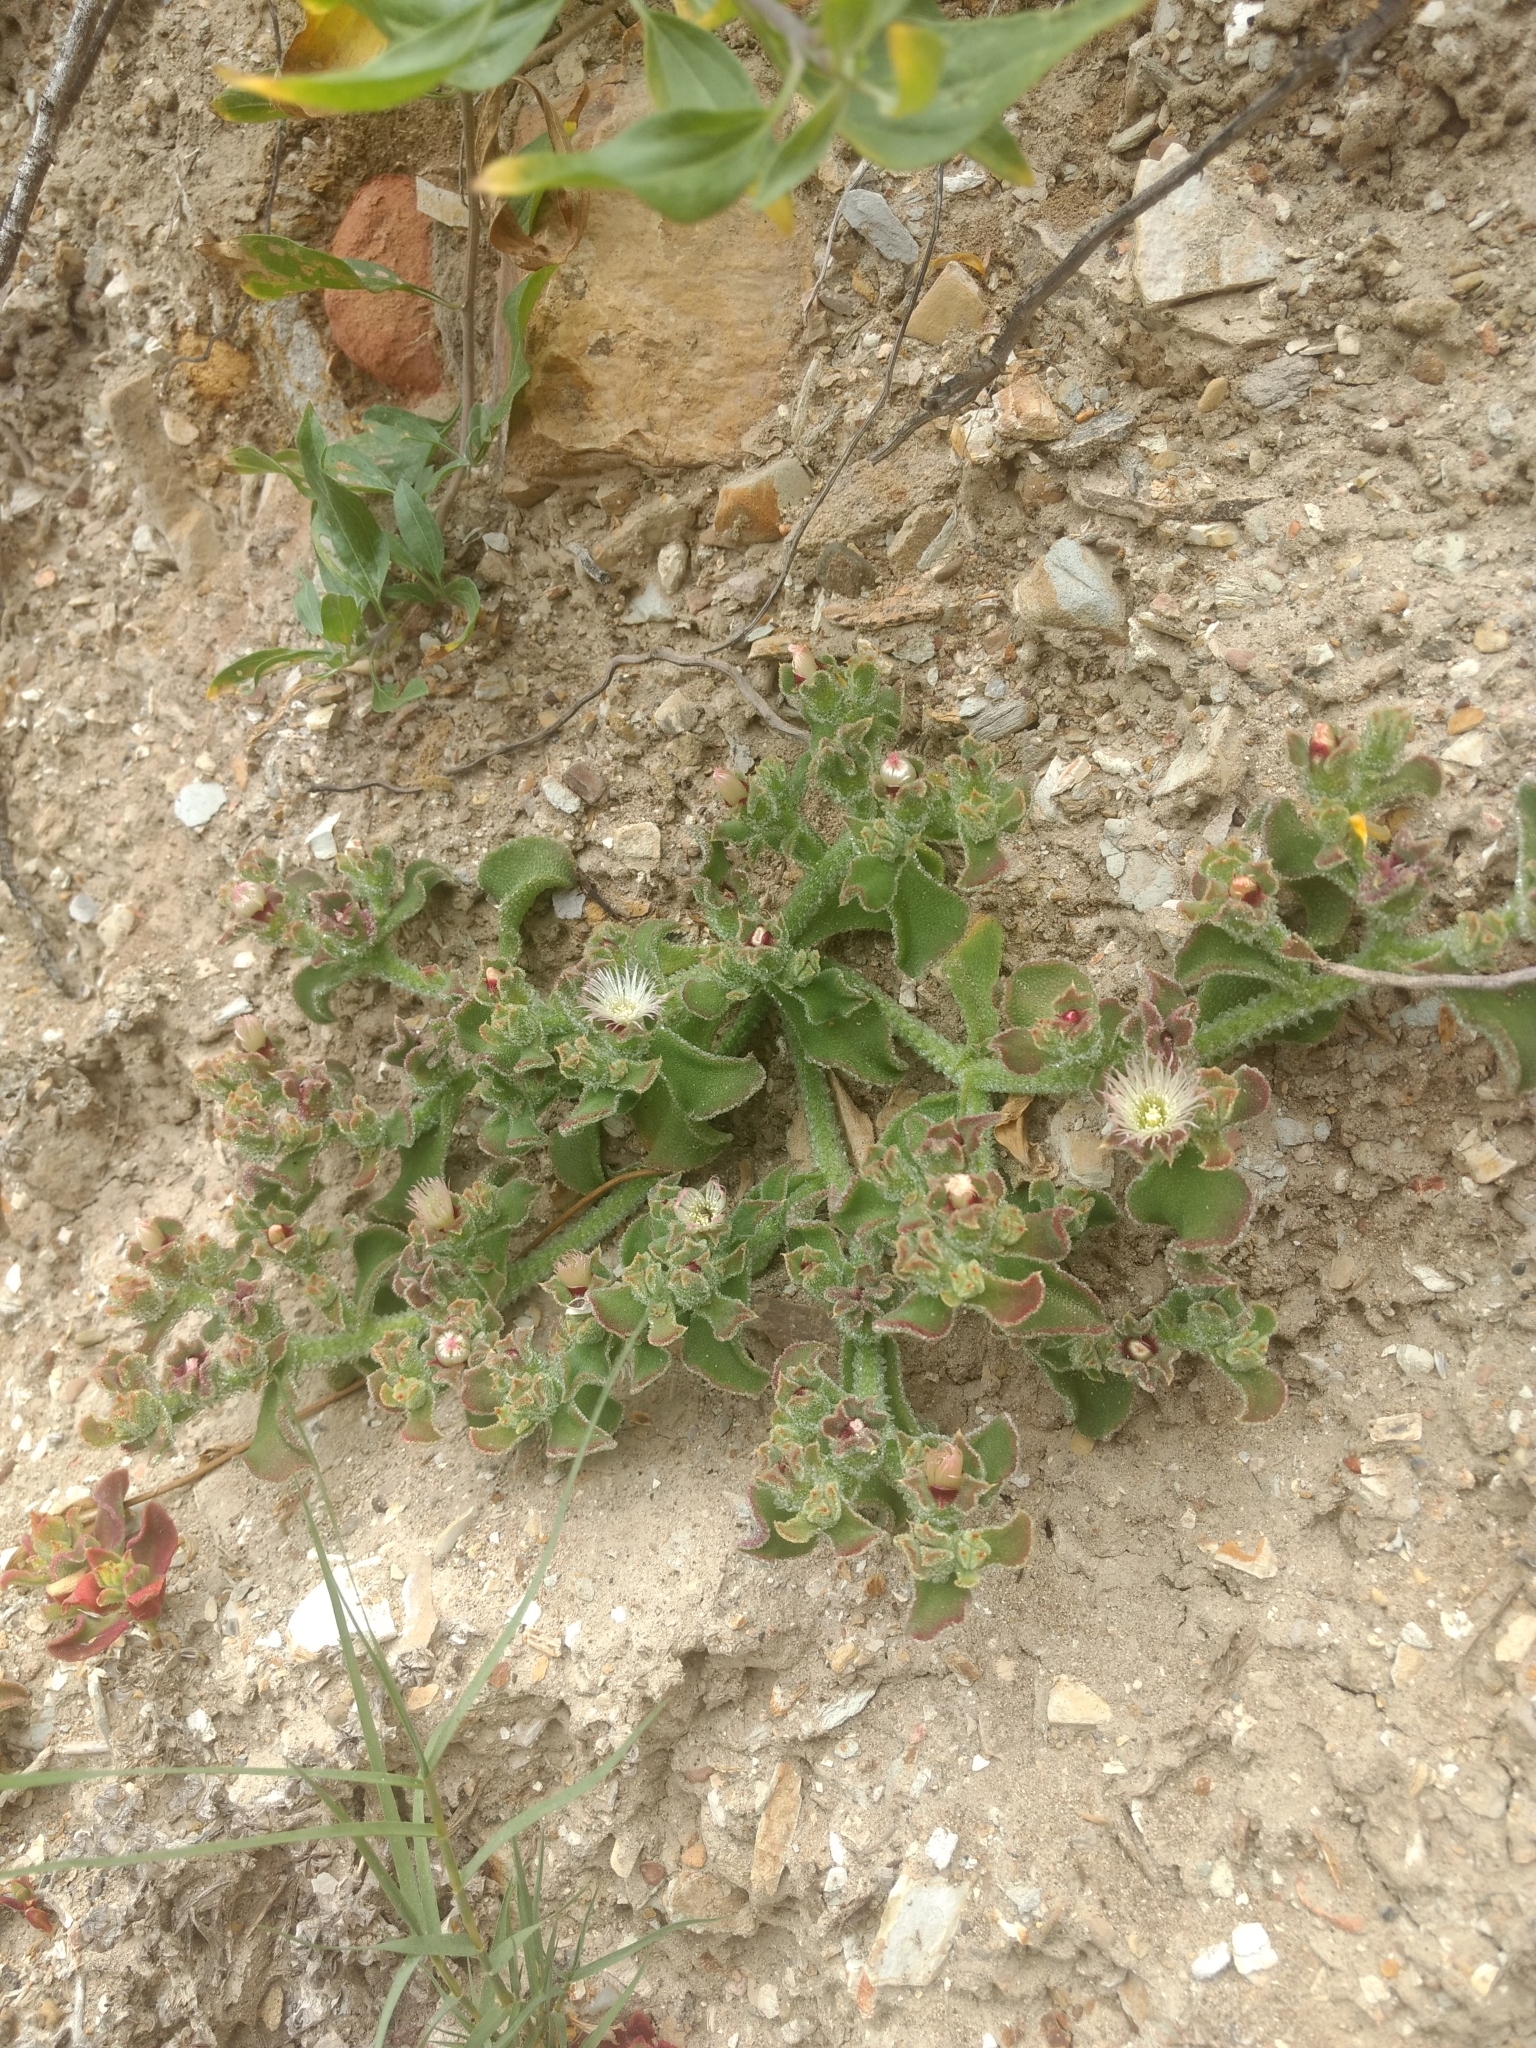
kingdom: Plantae
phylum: Tracheophyta
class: Magnoliopsida
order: Caryophyllales
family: Aizoaceae
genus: Mesembryanthemum
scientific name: Mesembryanthemum crystallinum
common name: Common iceplant
